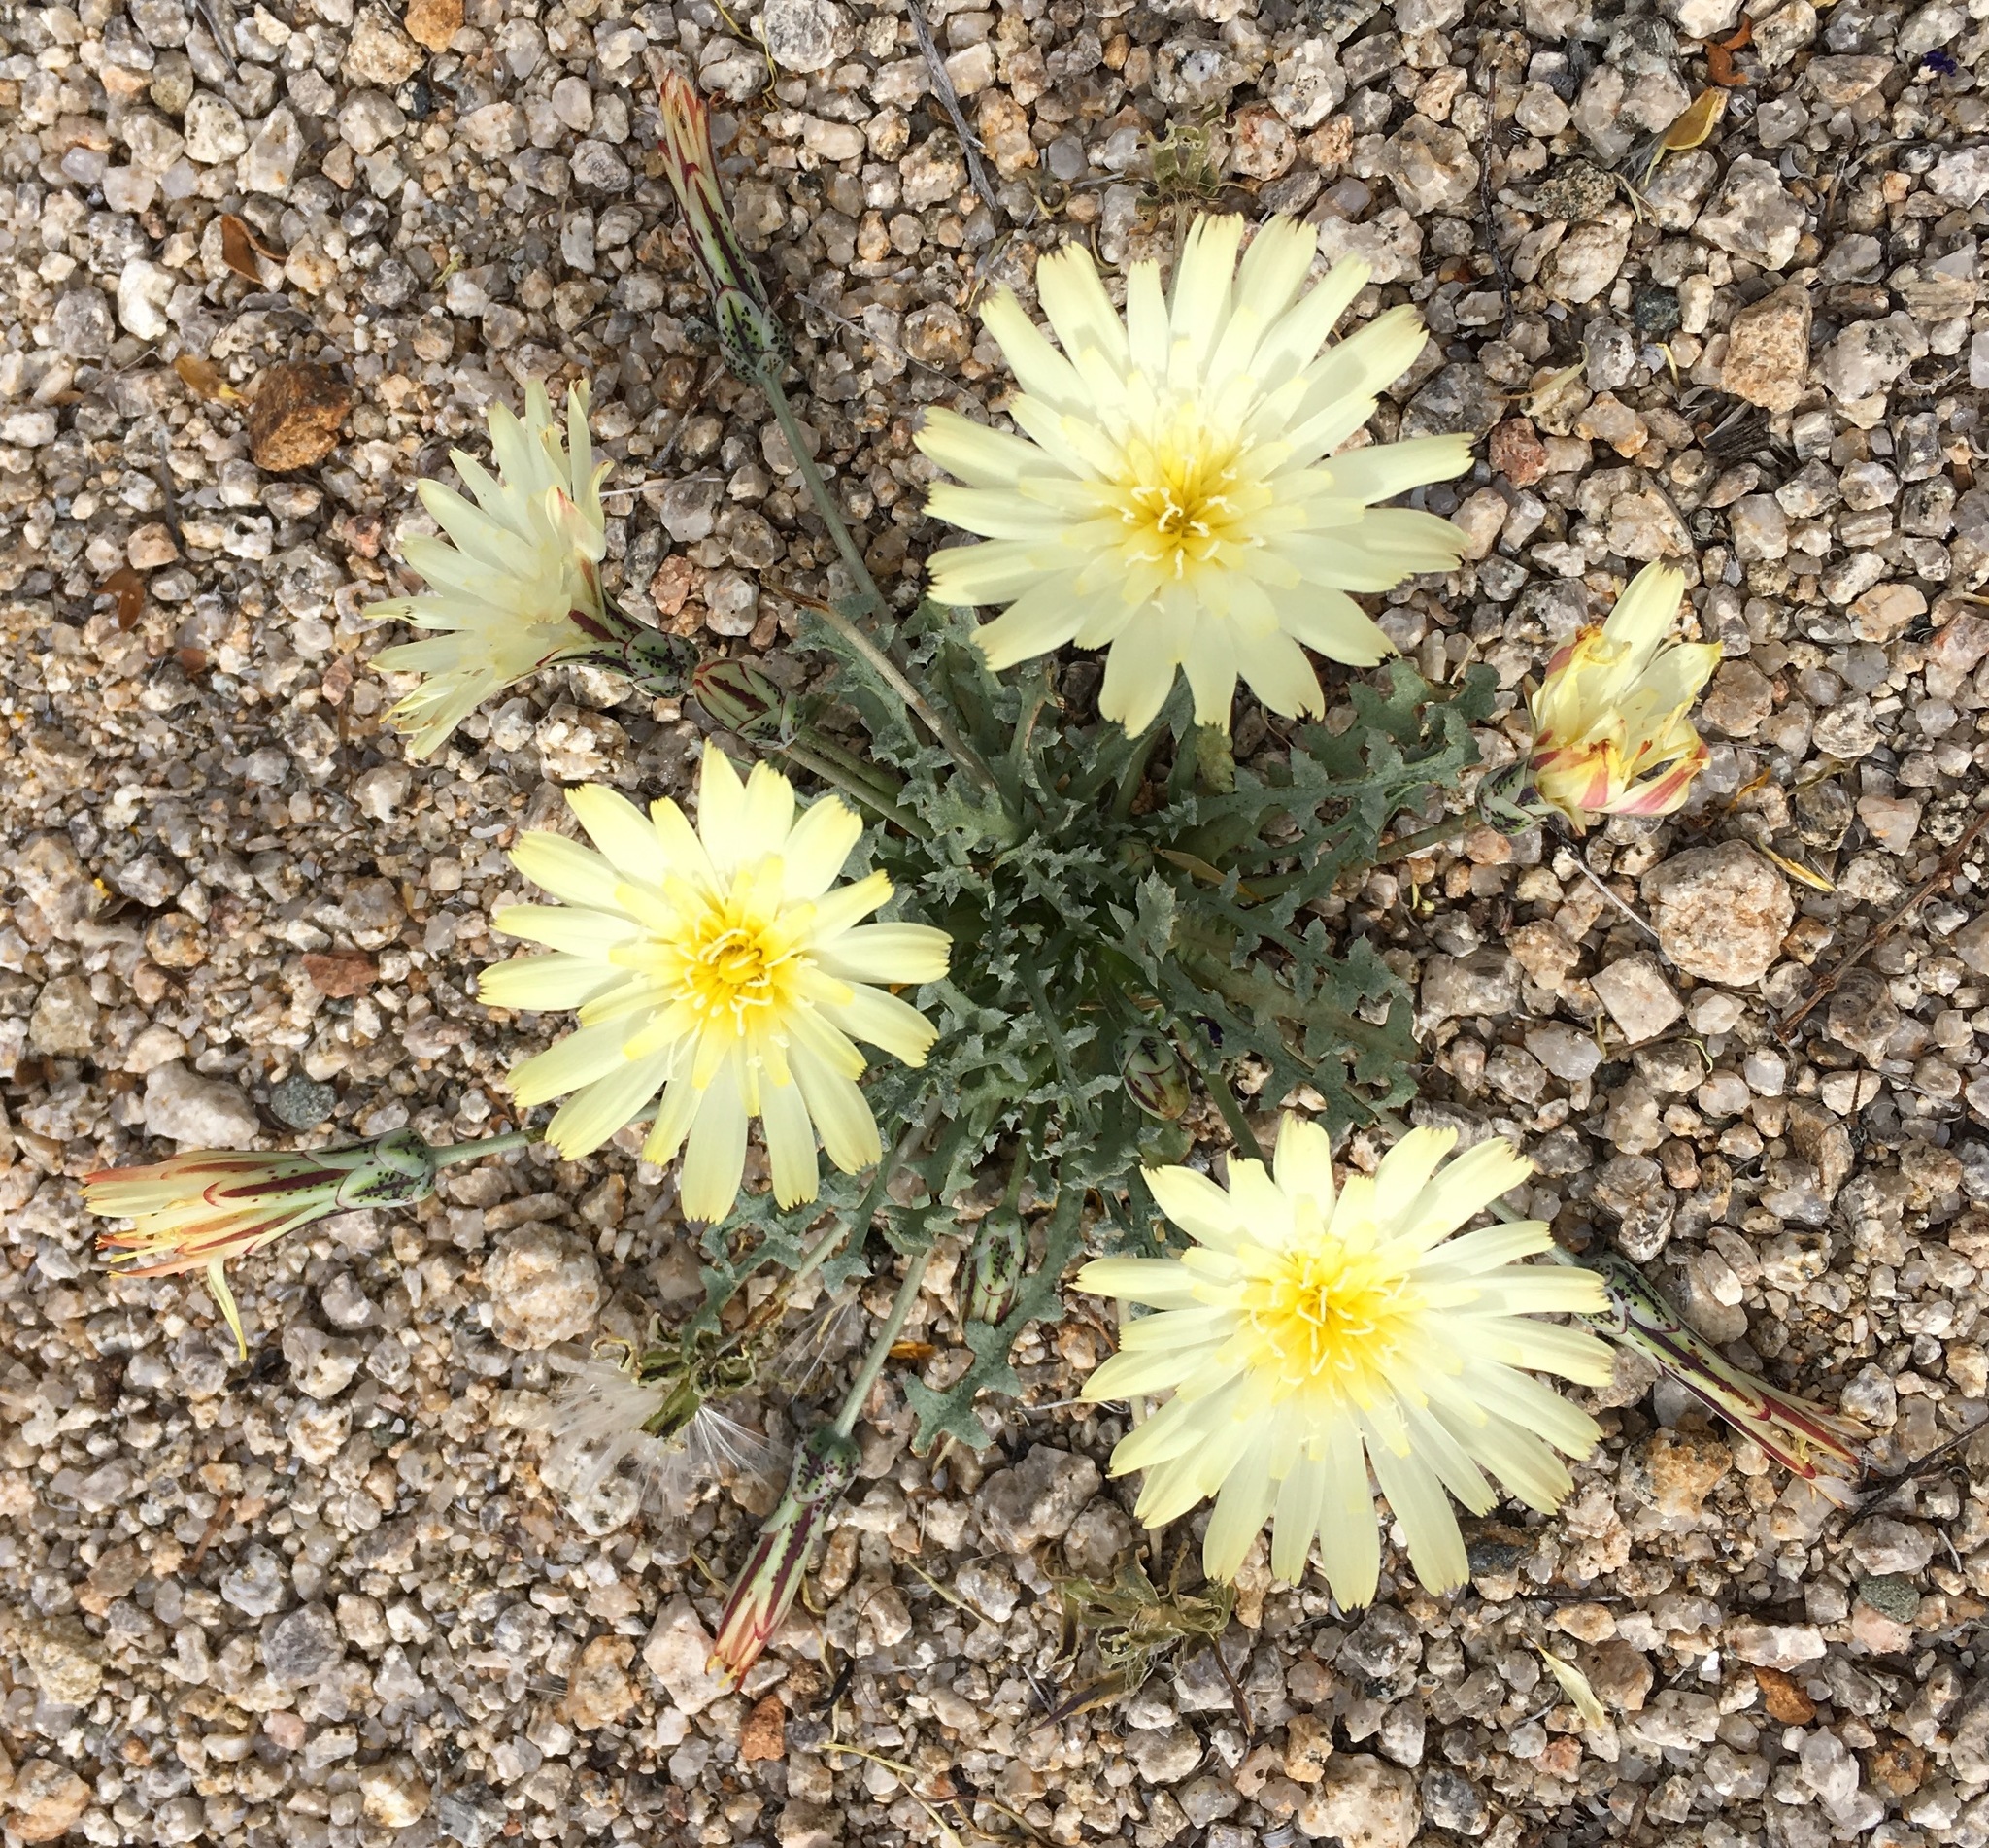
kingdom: Plantae
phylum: Tracheophyta
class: Magnoliopsida
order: Asterales
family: Asteraceae
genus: Anisocoma
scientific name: Anisocoma acaulis
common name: Scalebud
